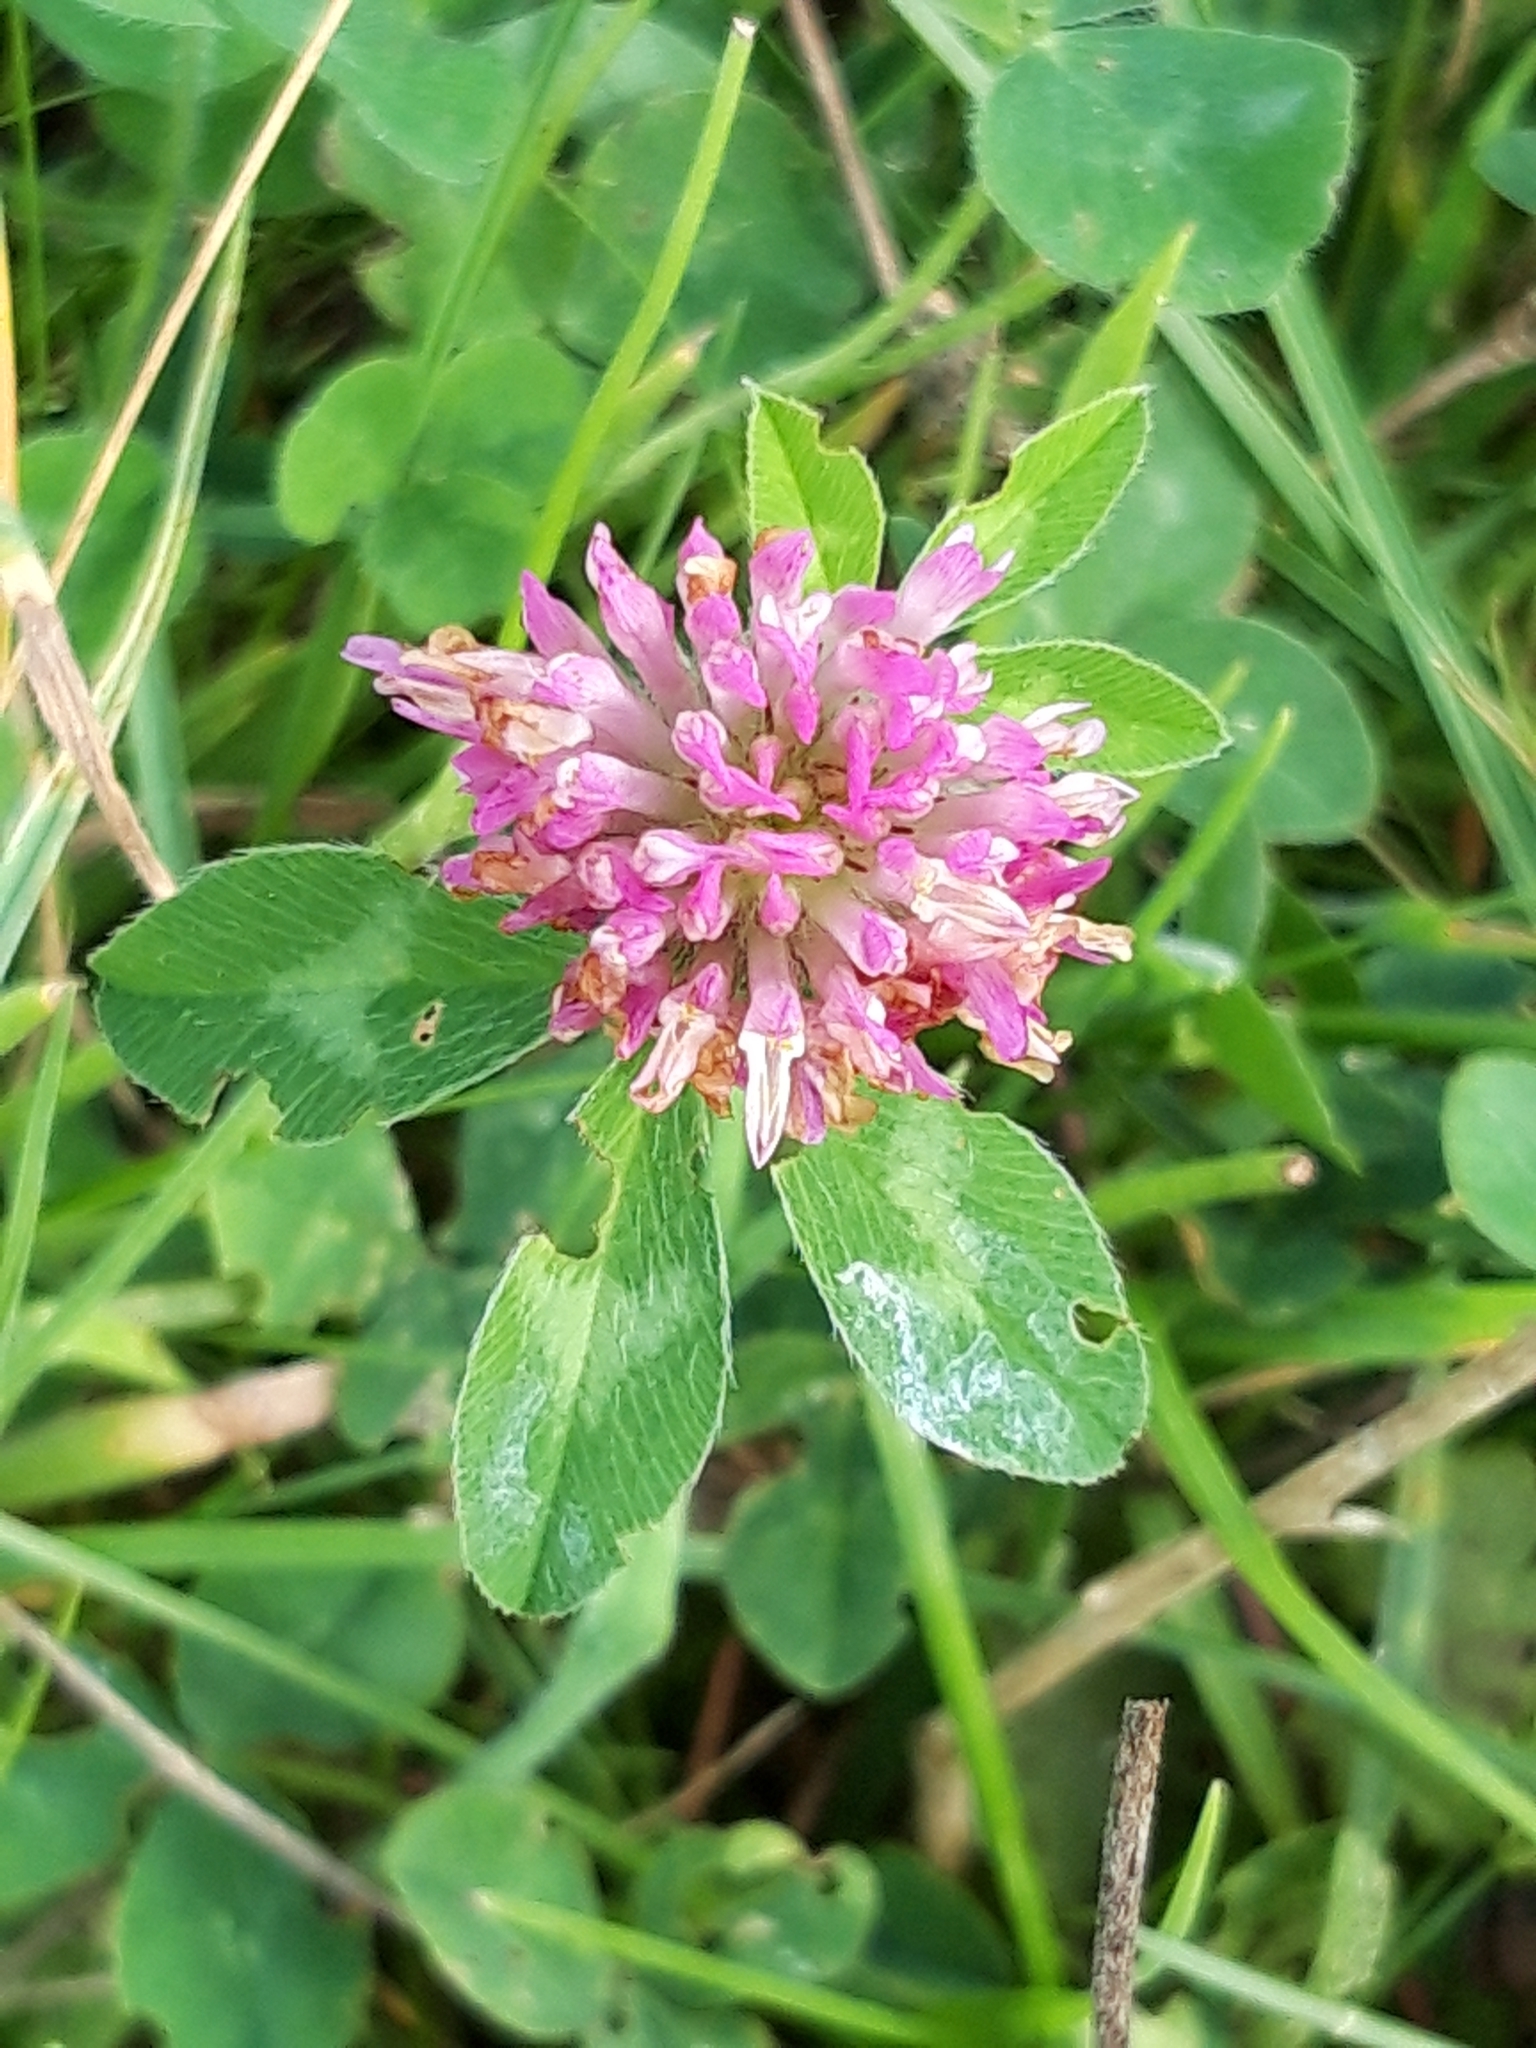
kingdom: Plantae
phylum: Tracheophyta
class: Magnoliopsida
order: Fabales
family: Fabaceae
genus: Trifolium
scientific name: Trifolium pratense
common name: Red clover
